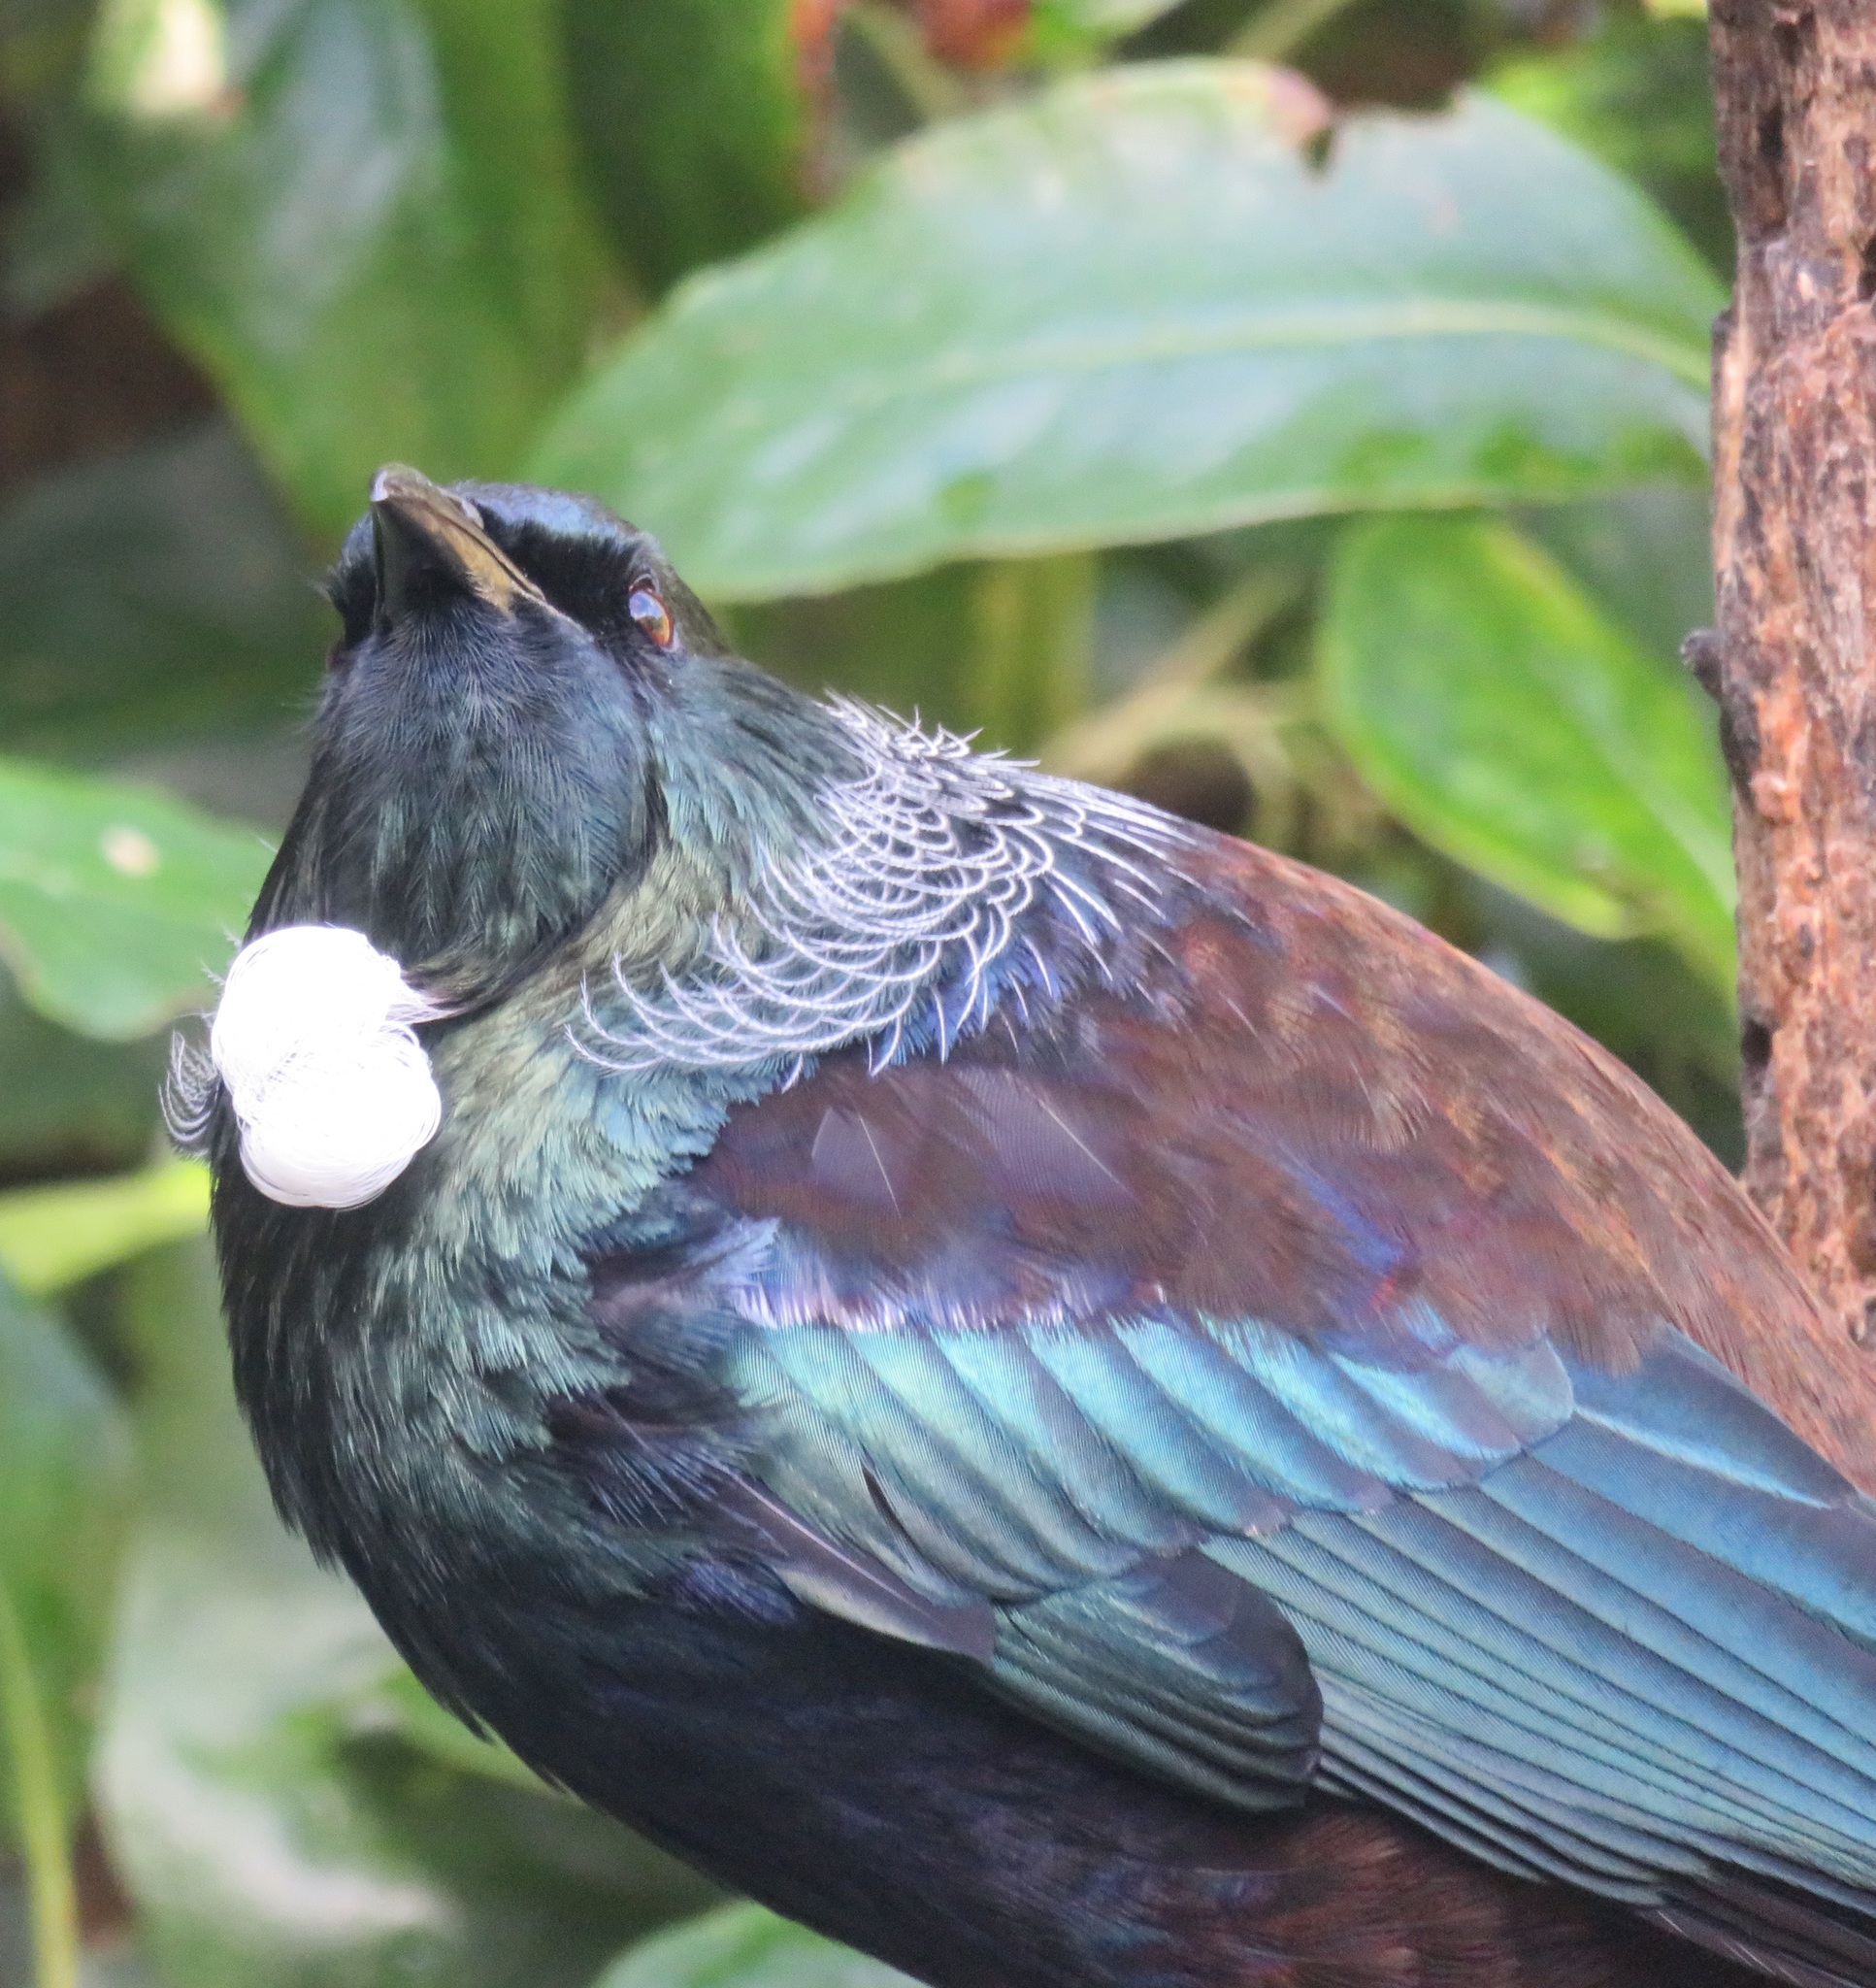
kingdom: Animalia
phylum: Chordata
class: Aves
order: Passeriformes
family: Meliphagidae
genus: Prosthemadera
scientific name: Prosthemadera novaeseelandiae
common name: Tui
